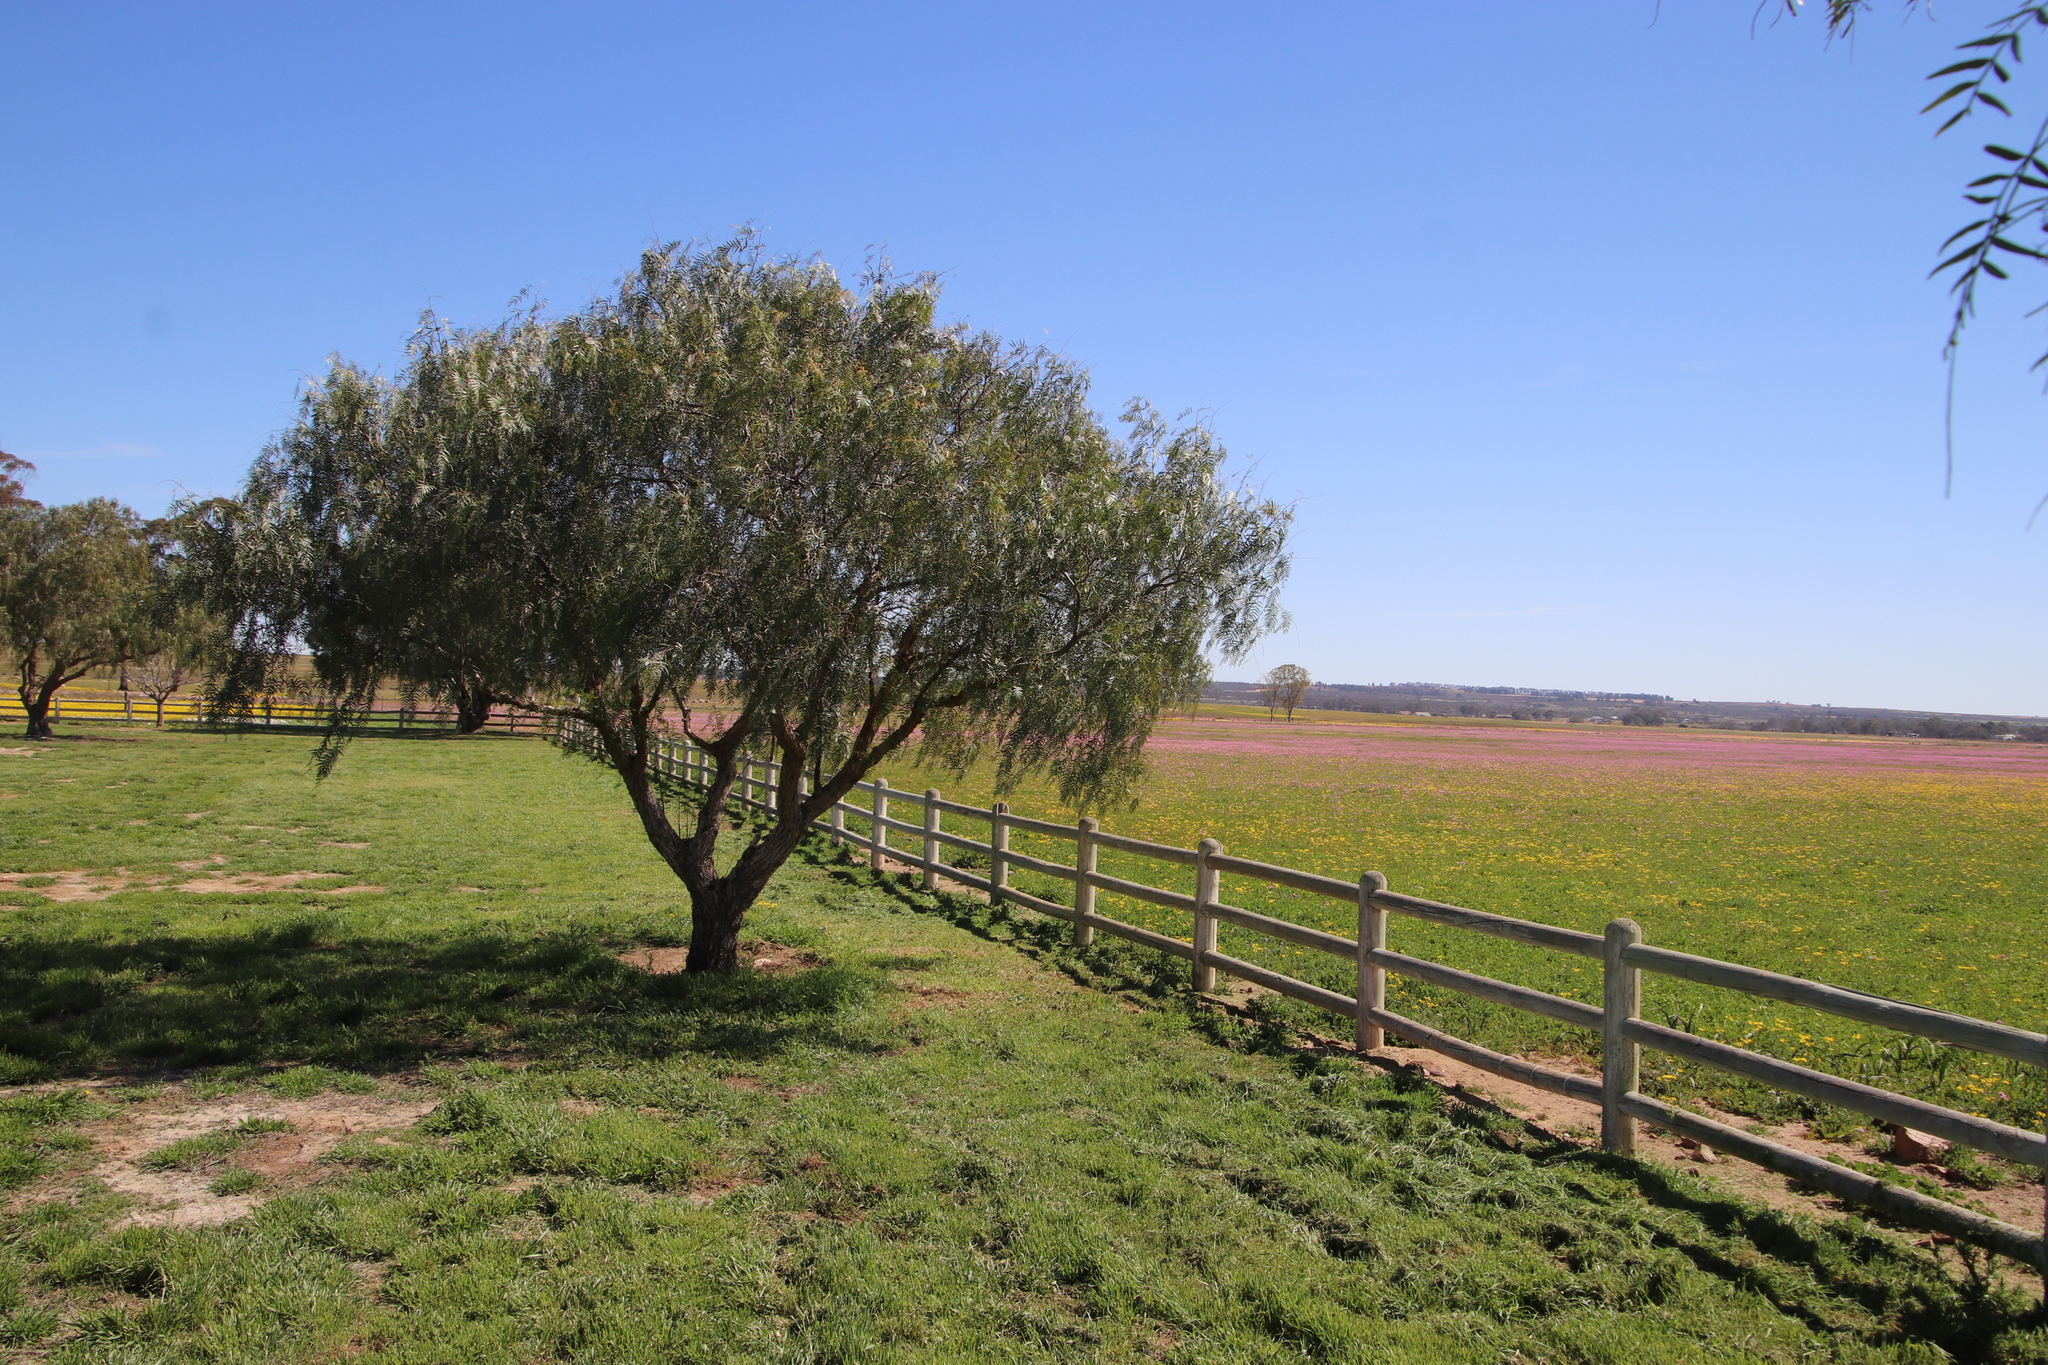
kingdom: Plantae
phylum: Tracheophyta
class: Magnoliopsida
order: Sapindales
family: Anacardiaceae
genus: Schinus
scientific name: Schinus molle
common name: Peruvian peppertree
